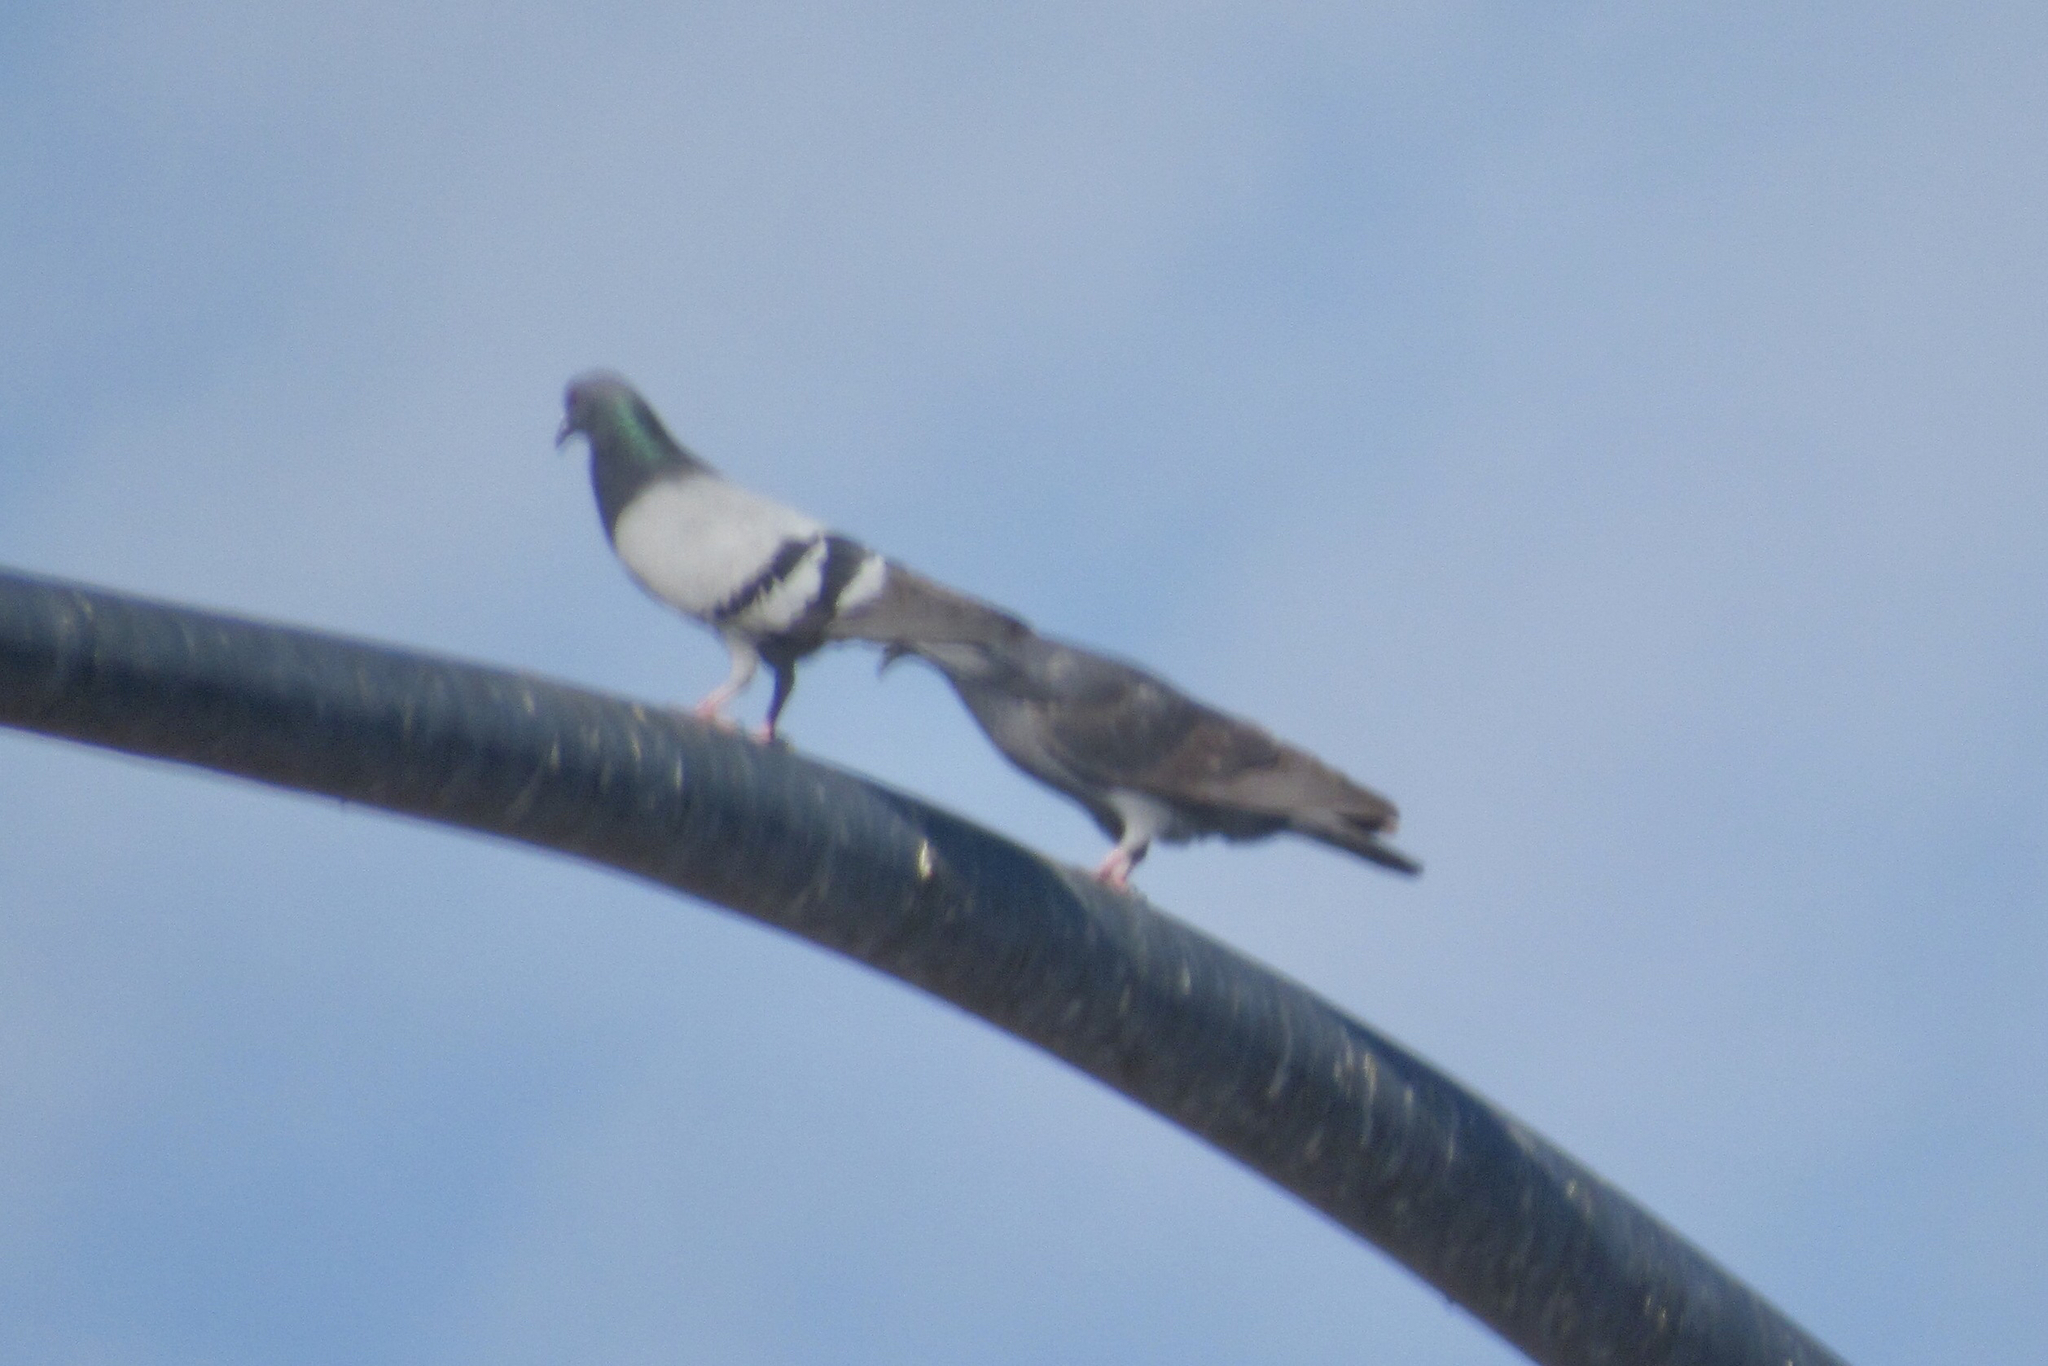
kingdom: Animalia
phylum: Chordata
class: Aves
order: Columbiformes
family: Columbidae
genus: Columba
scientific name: Columba livia
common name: Rock pigeon
